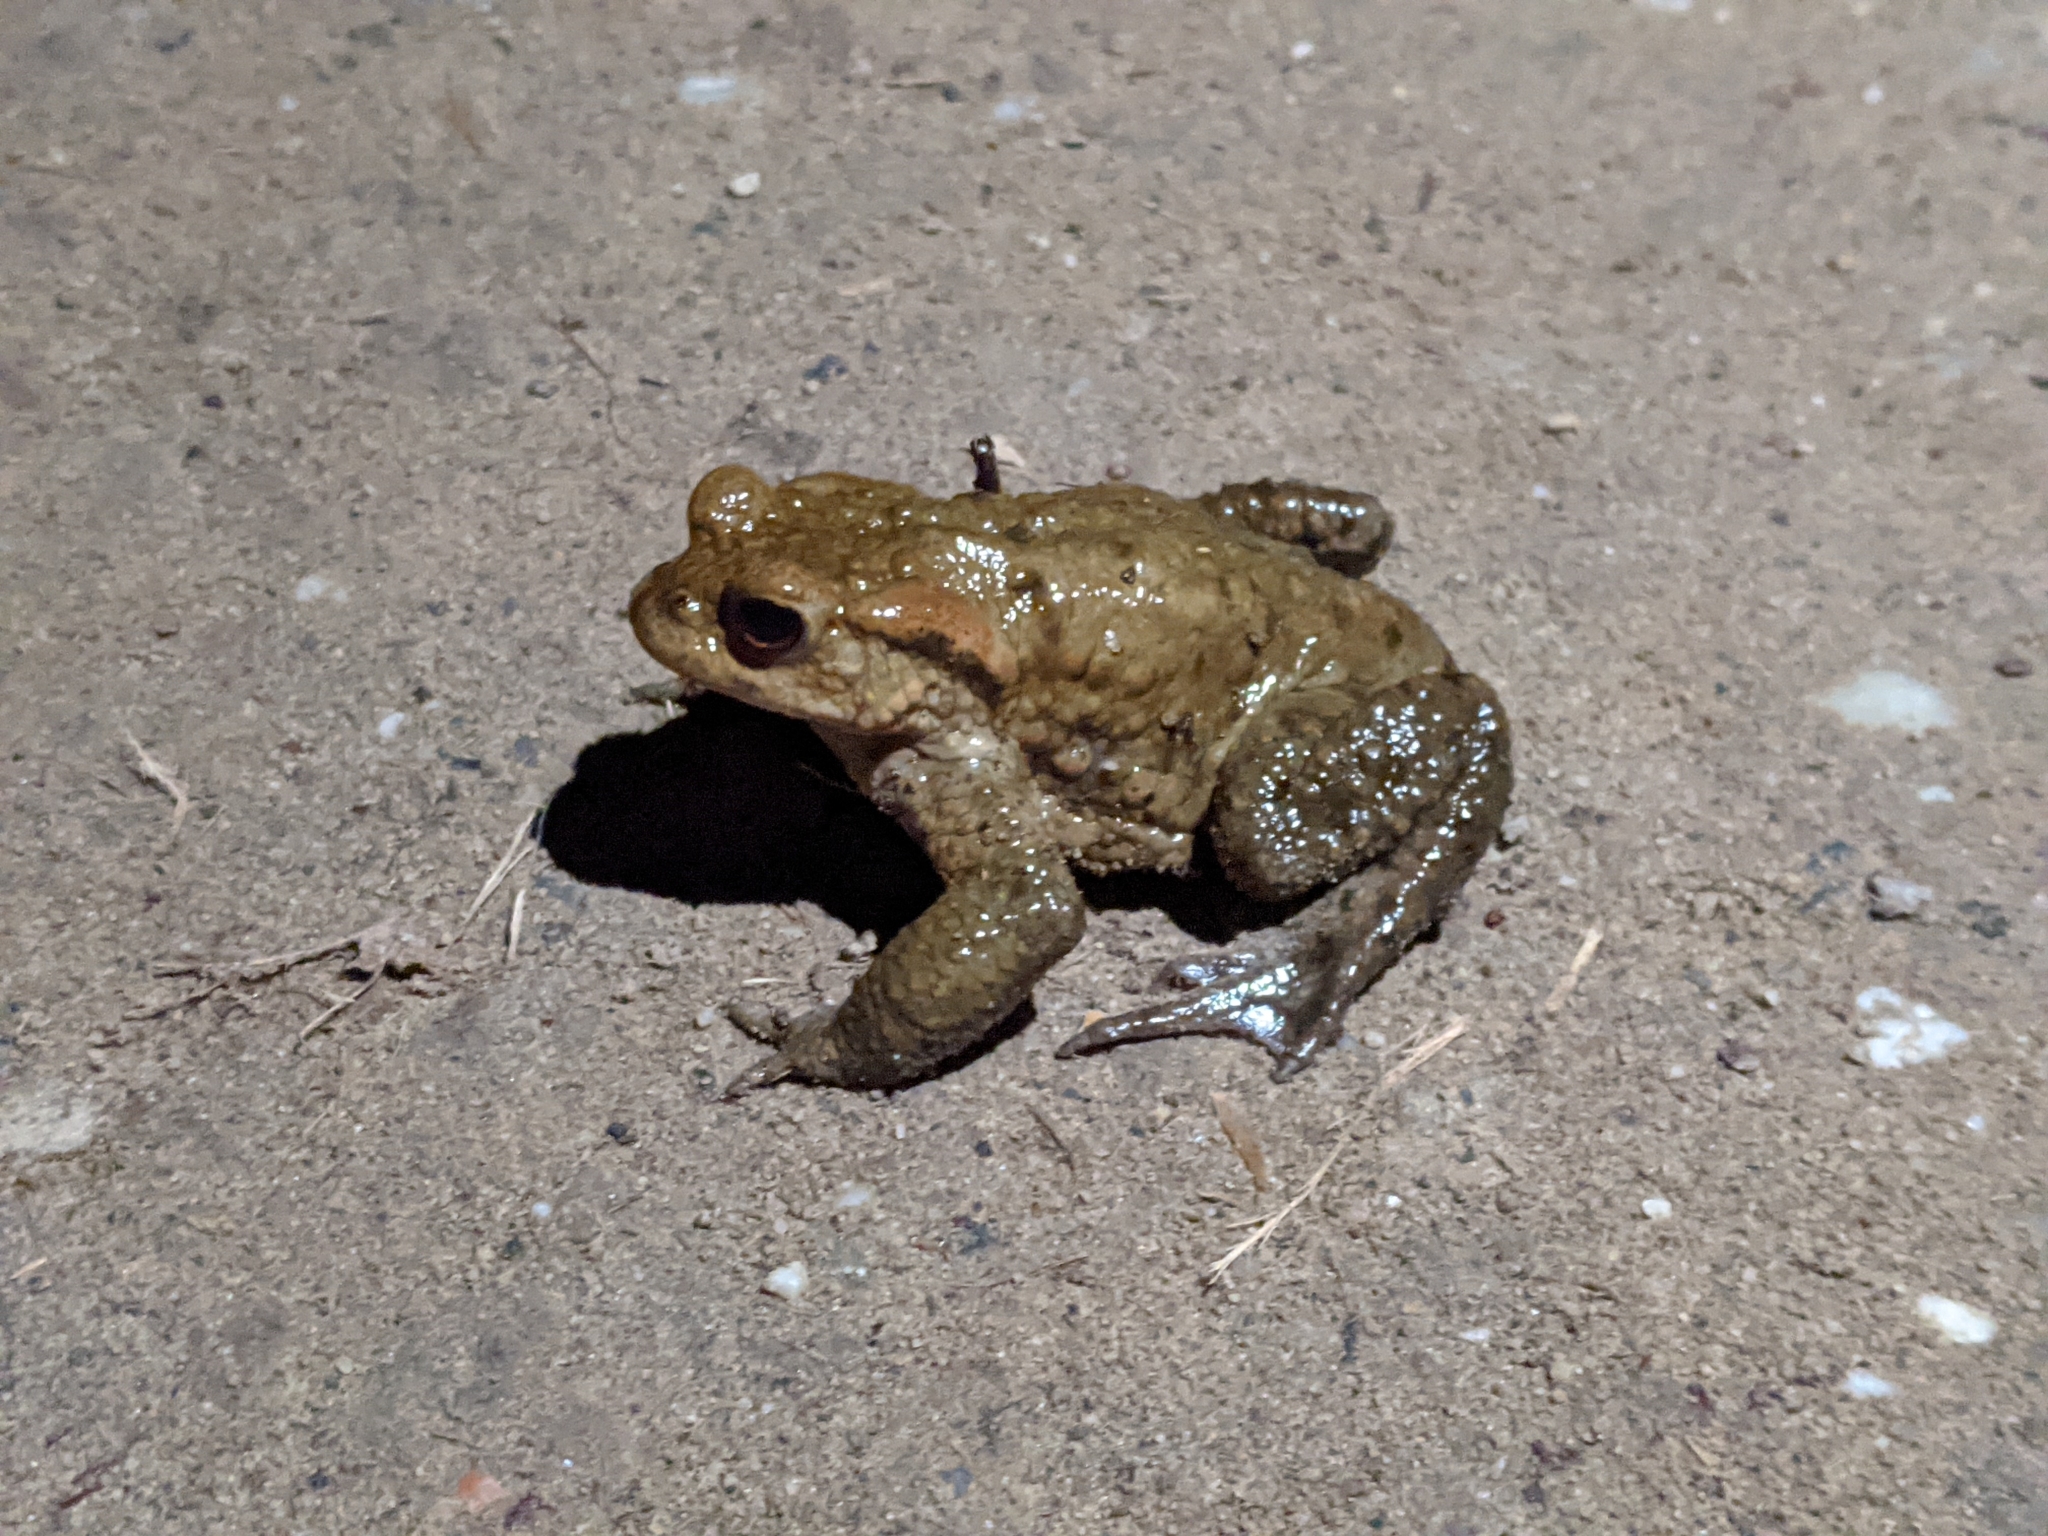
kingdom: Animalia
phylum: Chordata
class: Amphibia
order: Anura
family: Bufonidae
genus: Bufo
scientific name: Bufo bufo
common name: Common toad
